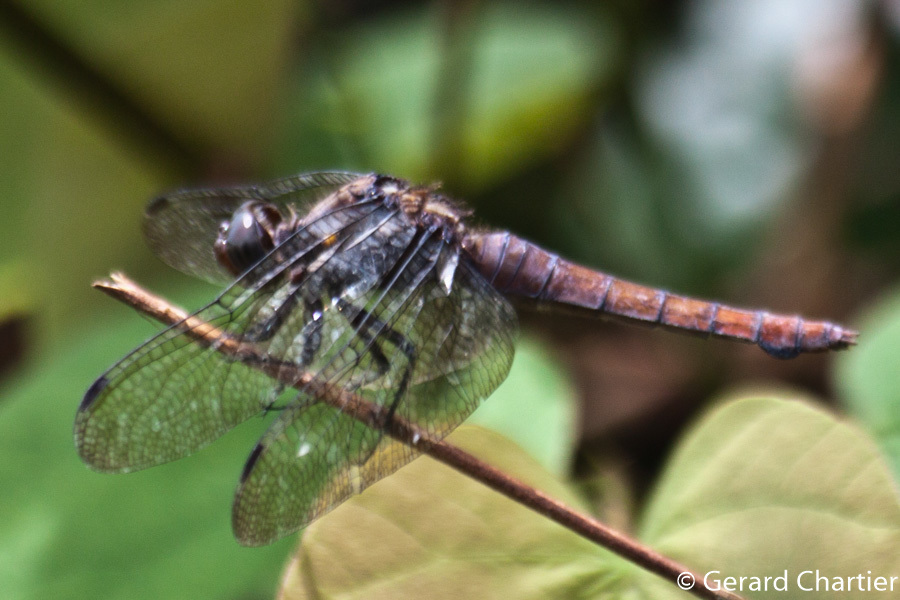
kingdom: Animalia
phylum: Arthropoda
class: Insecta
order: Odonata
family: Libellulidae
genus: Orthetrum
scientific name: Orthetrum chrysis
